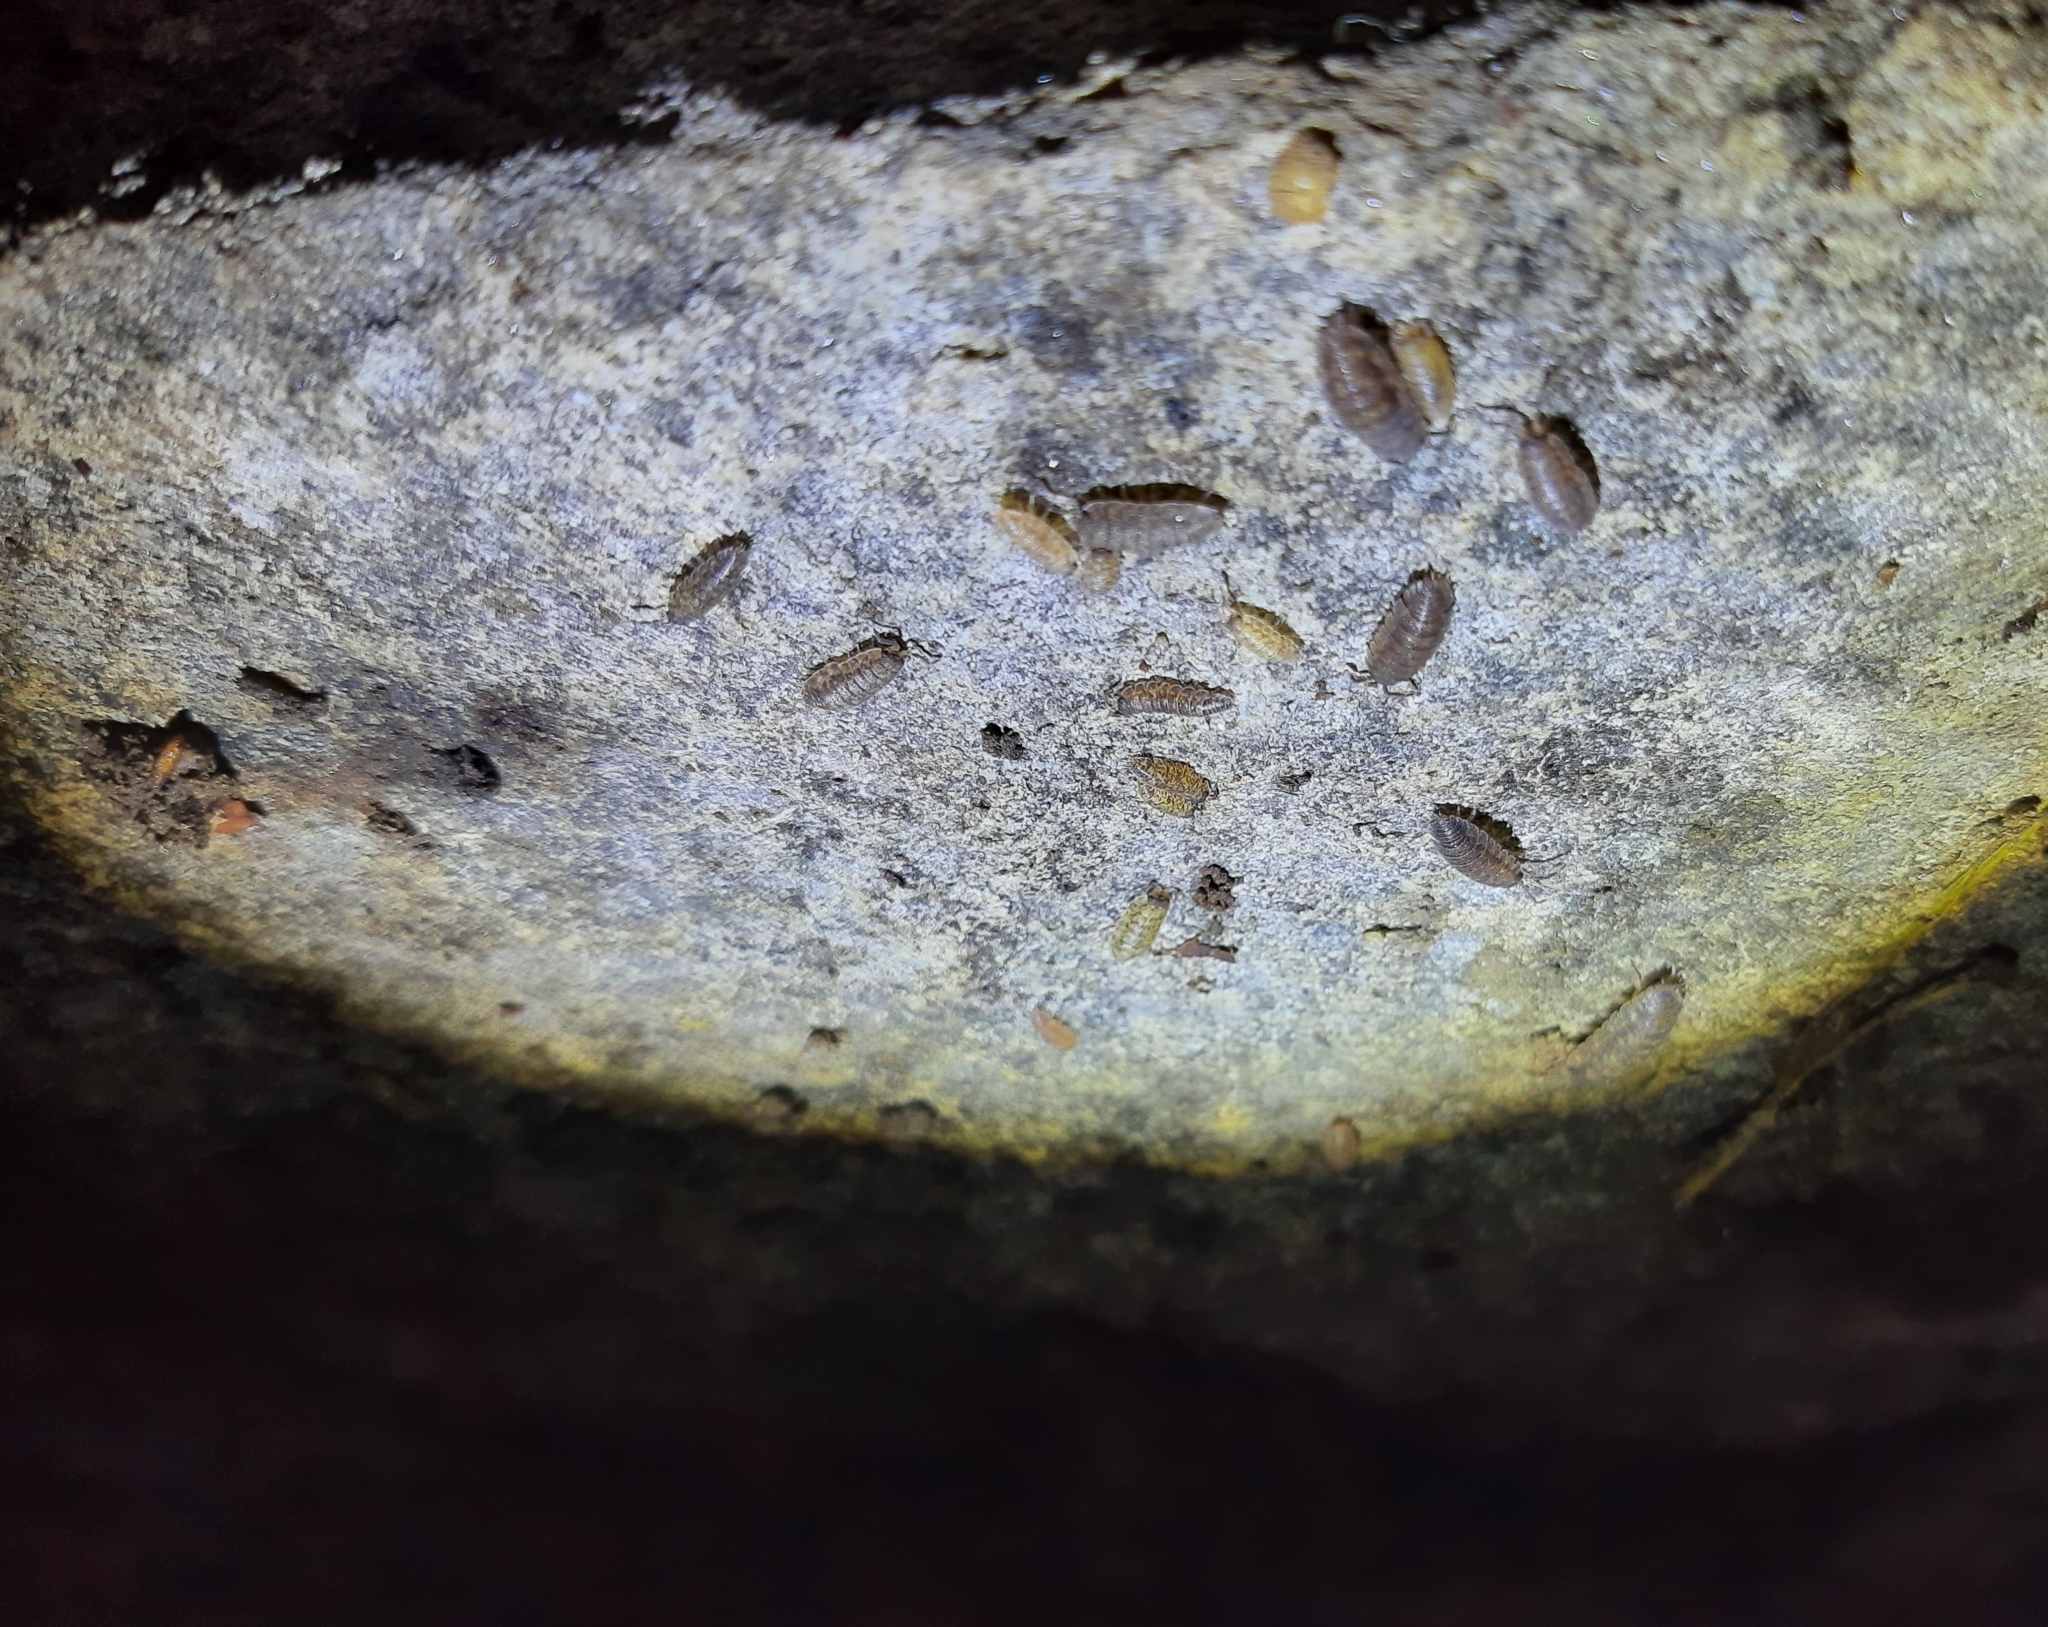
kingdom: Animalia
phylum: Arthropoda
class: Malacostraca
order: Isopoda
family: Porcellionidae
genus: Porcellio
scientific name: Porcellio scaber
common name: Common rough woodlouse
